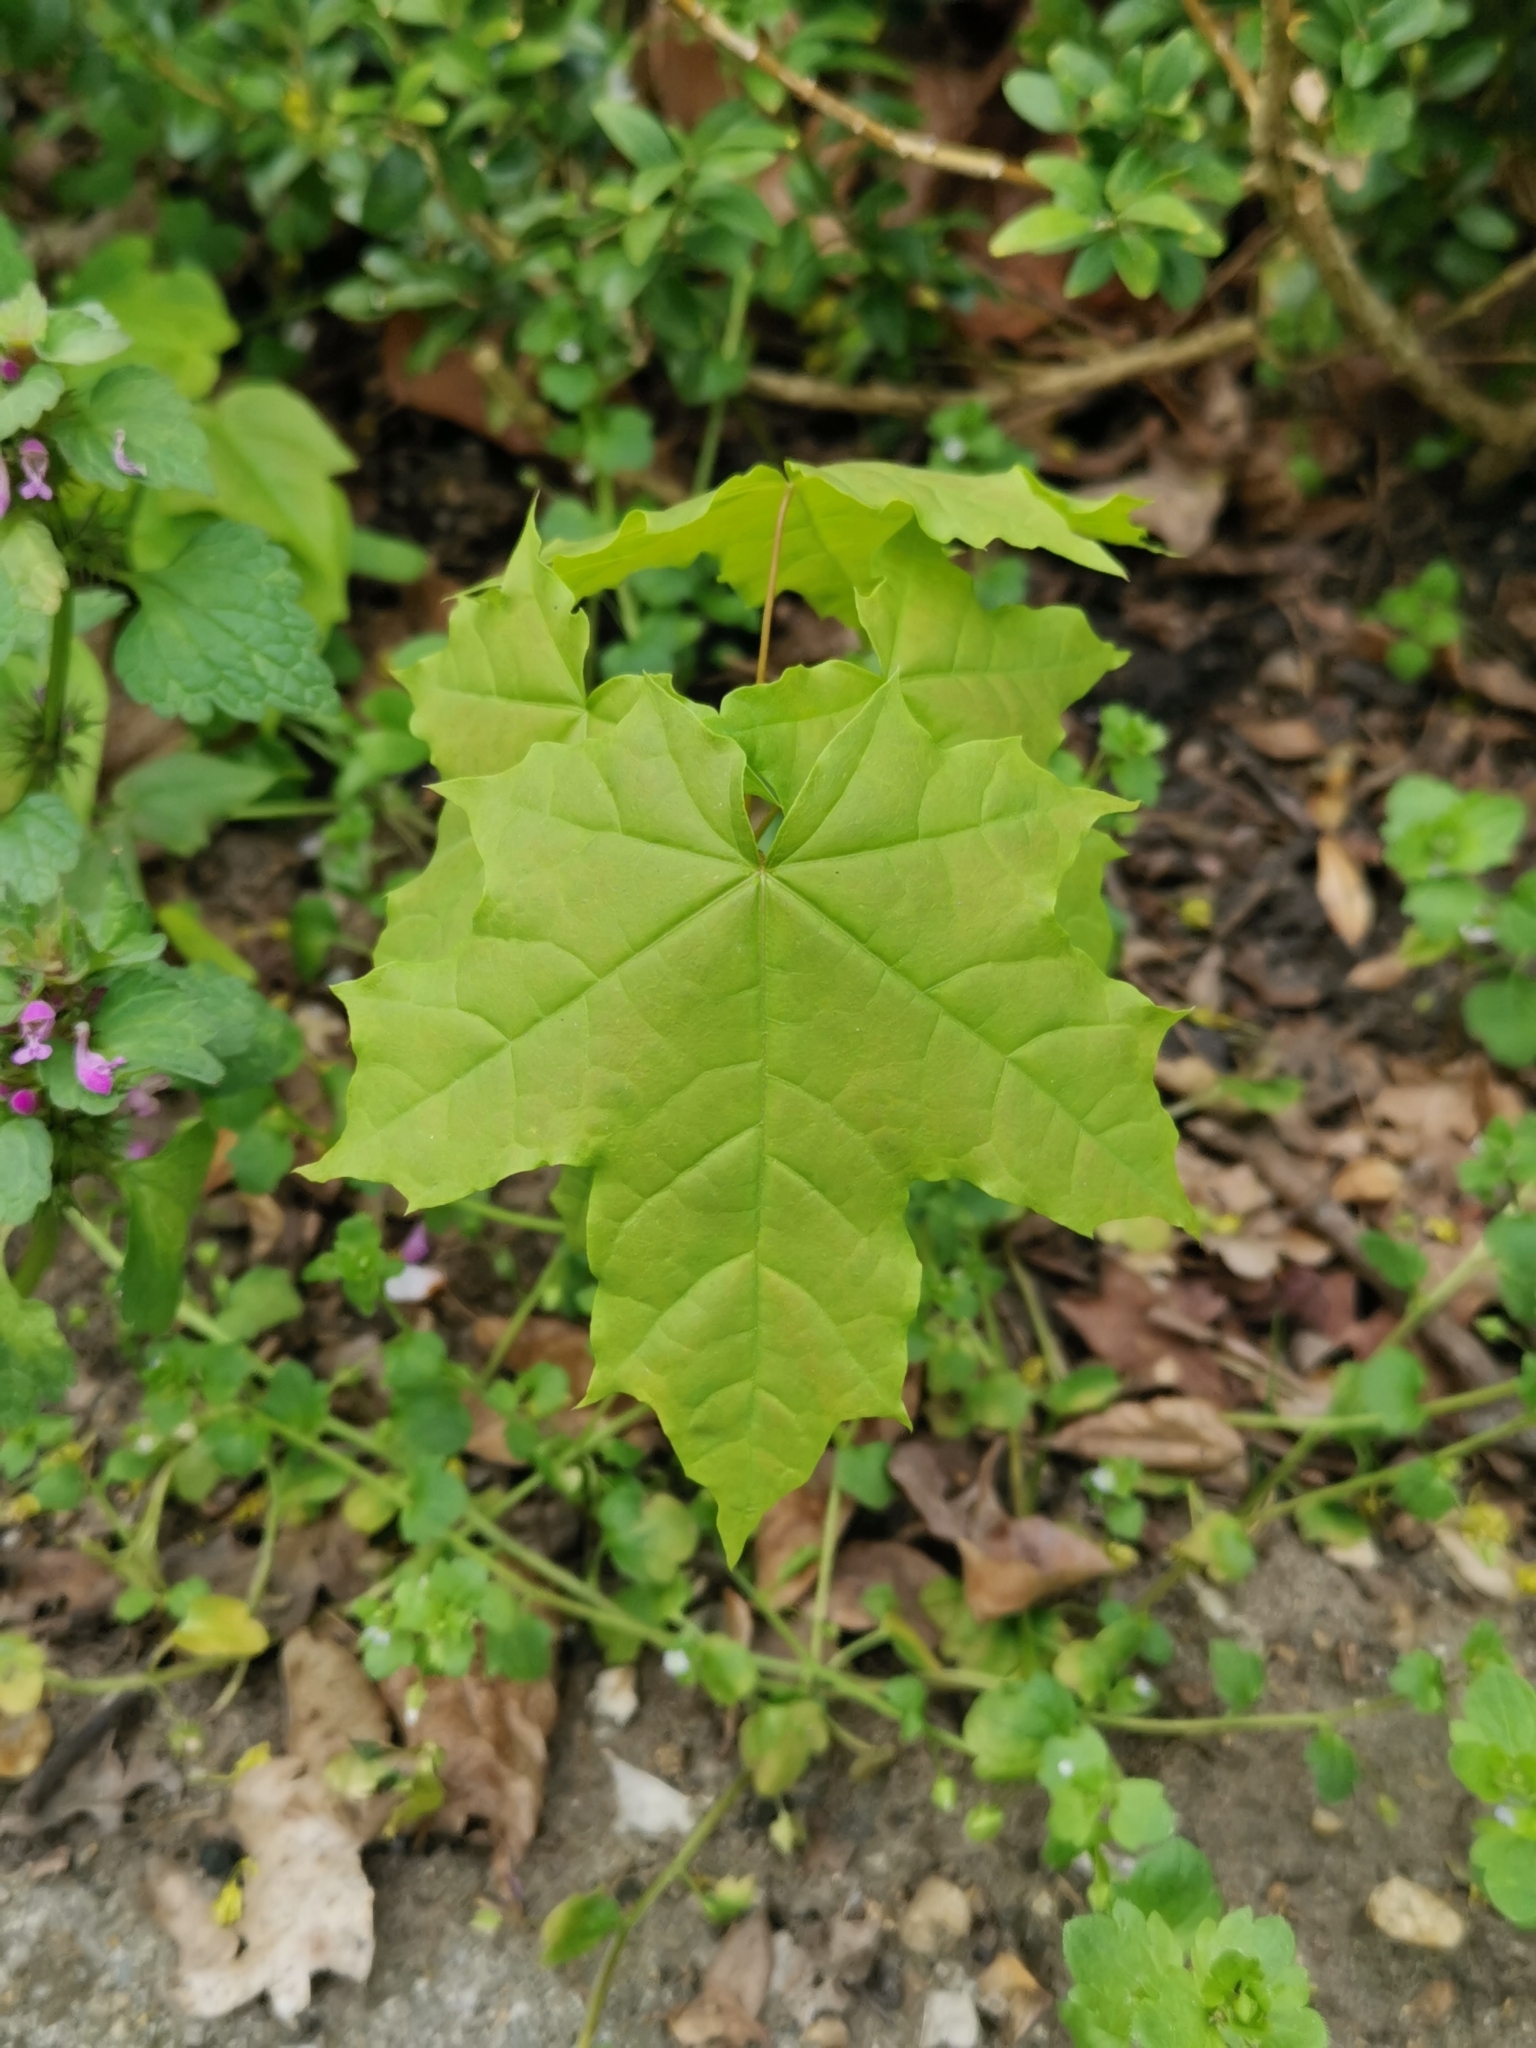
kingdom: Plantae
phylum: Tracheophyta
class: Magnoliopsida
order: Sapindales
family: Sapindaceae
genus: Acer
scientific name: Acer platanoides
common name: Norway maple
